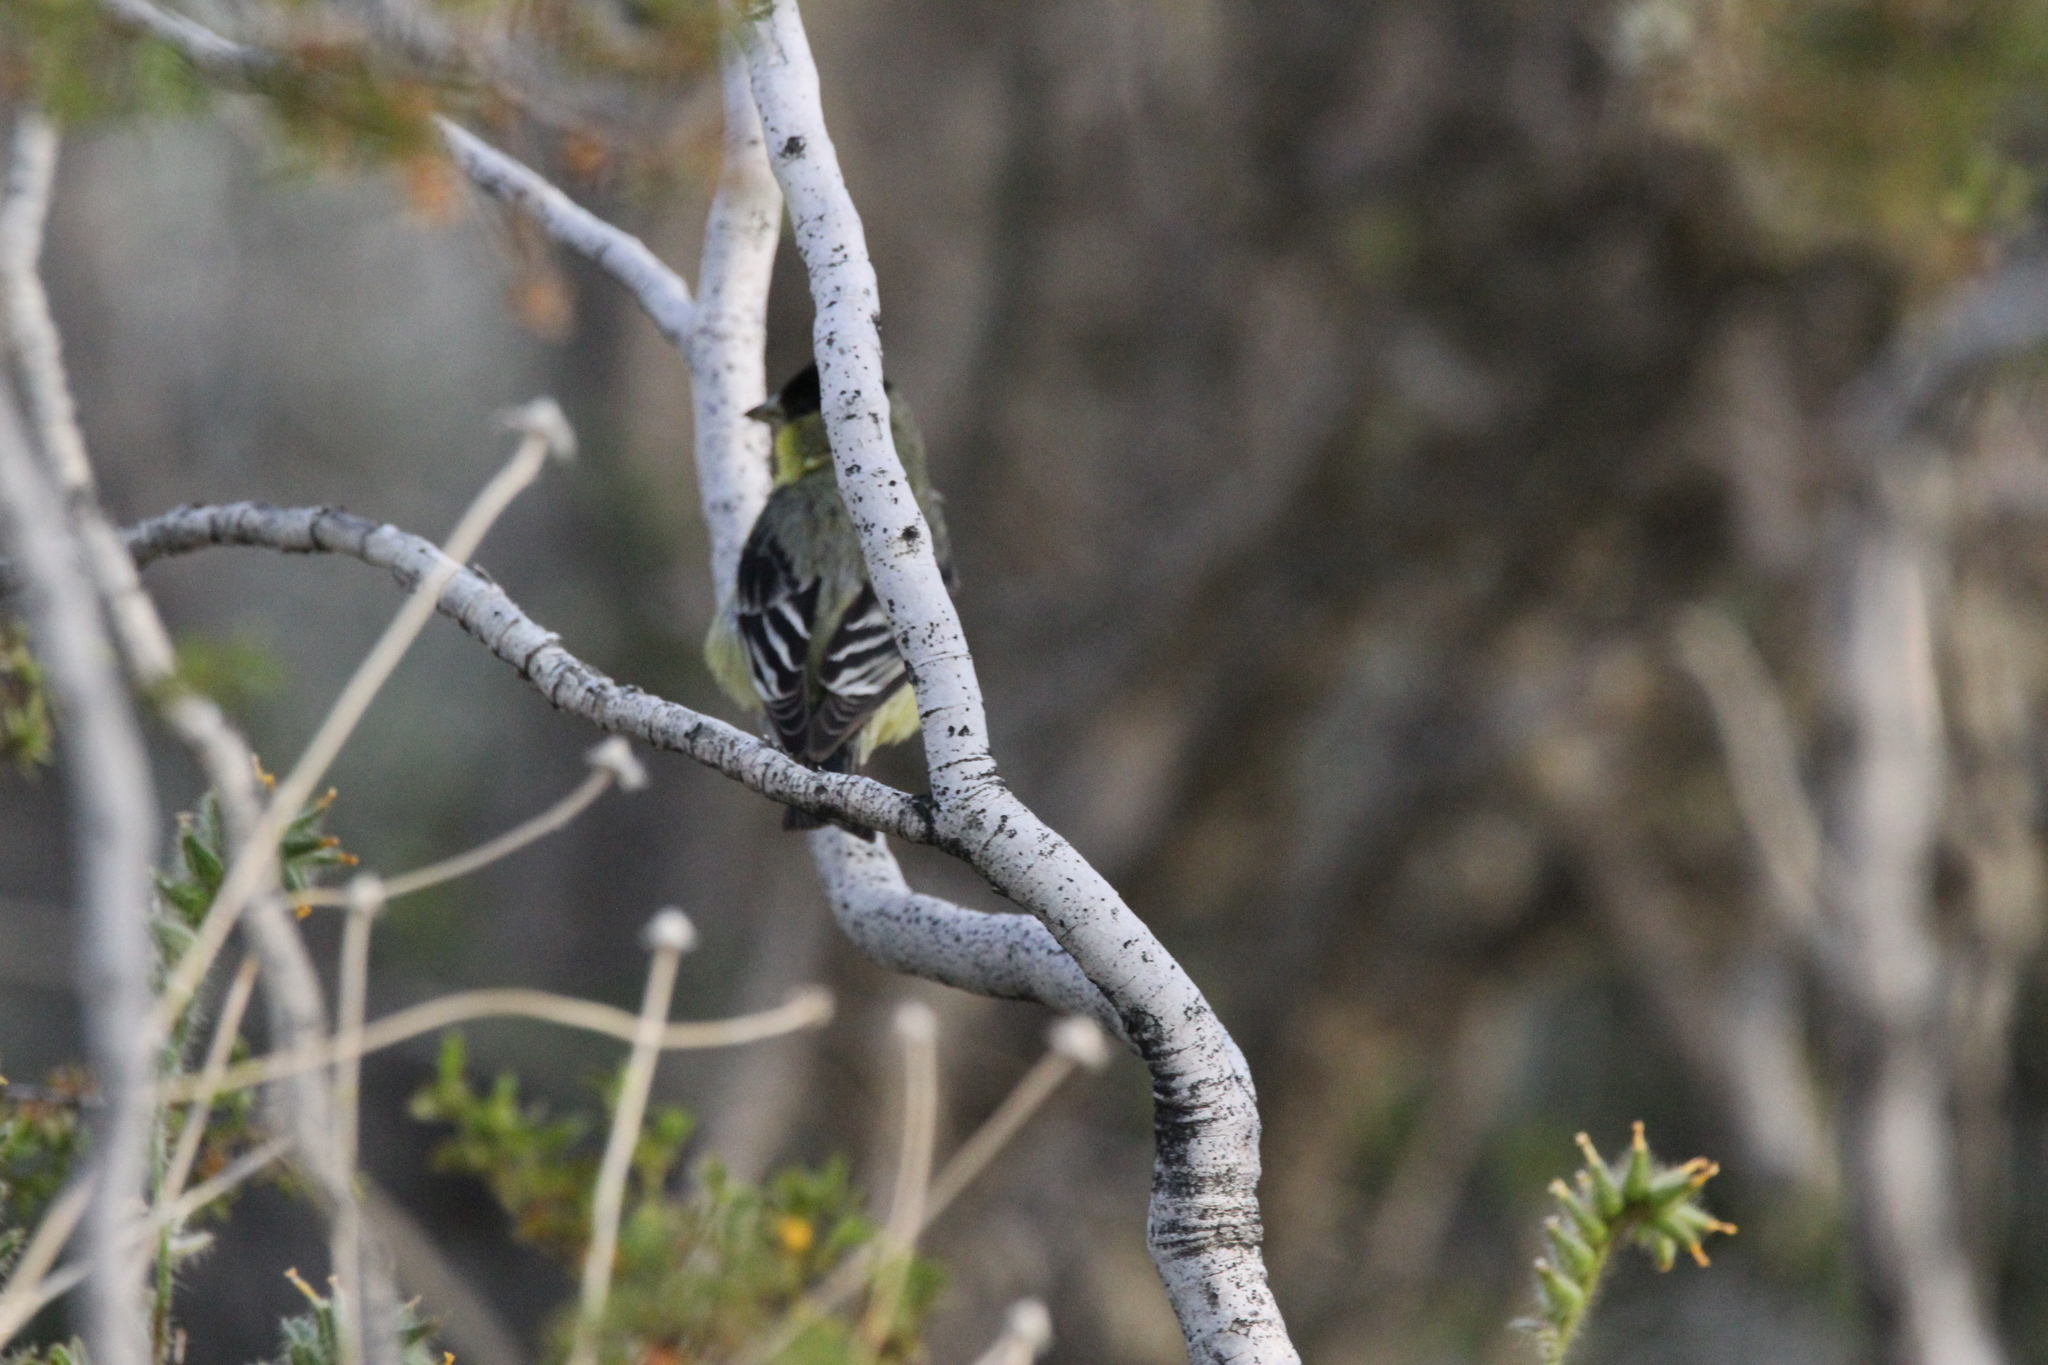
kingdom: Animalia
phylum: Chordata
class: Aves
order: Passeriformes
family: Fringillidae
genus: Spinus
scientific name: Spinus psaltria
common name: Lesser goldfinch
